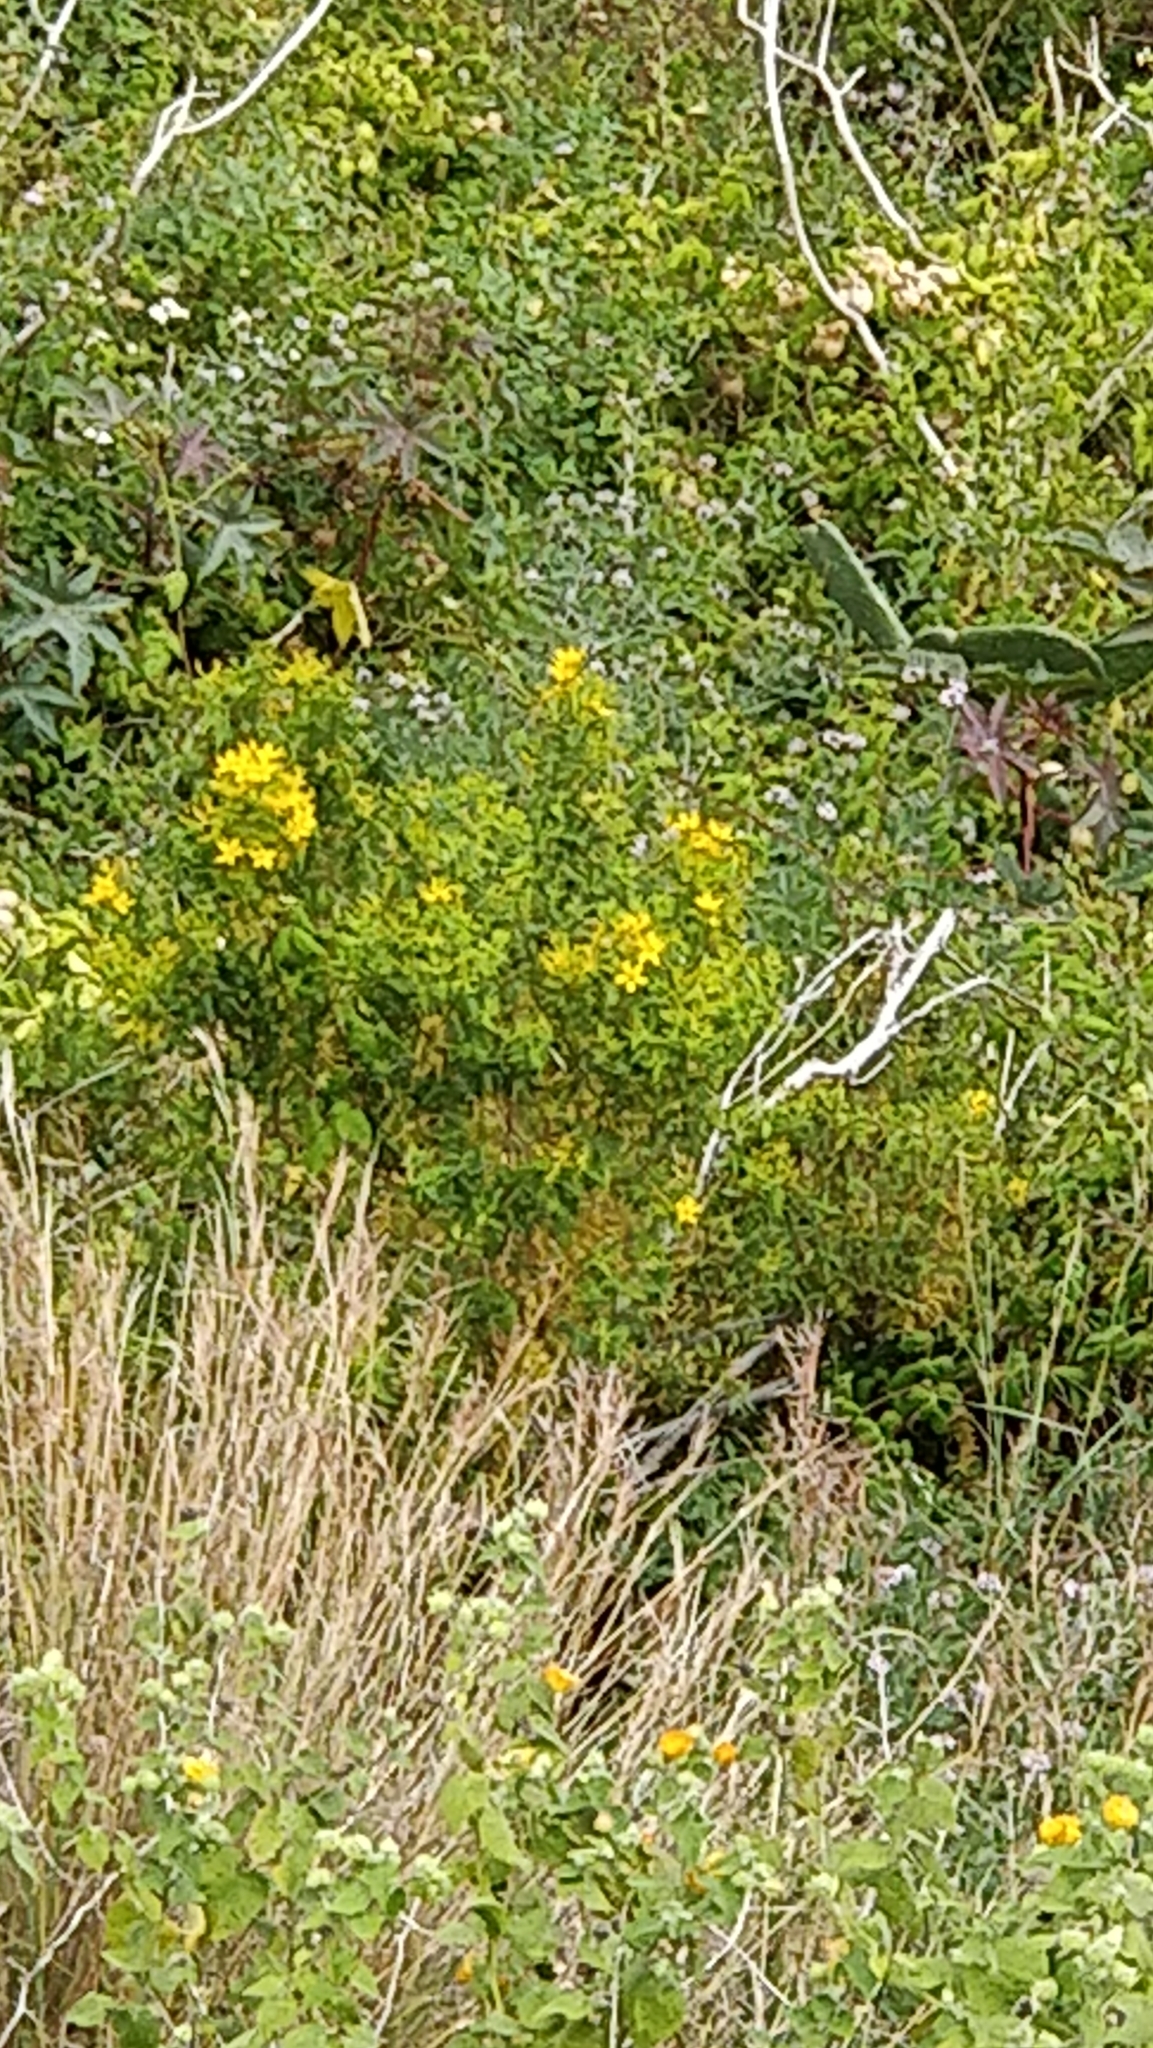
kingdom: Plantae
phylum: Tracheophyta
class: Magnoliopsida
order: Malpighiales
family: Hypericaceae
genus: Hypericum
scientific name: Hypericum canariense
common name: Canary island st. johnswort
